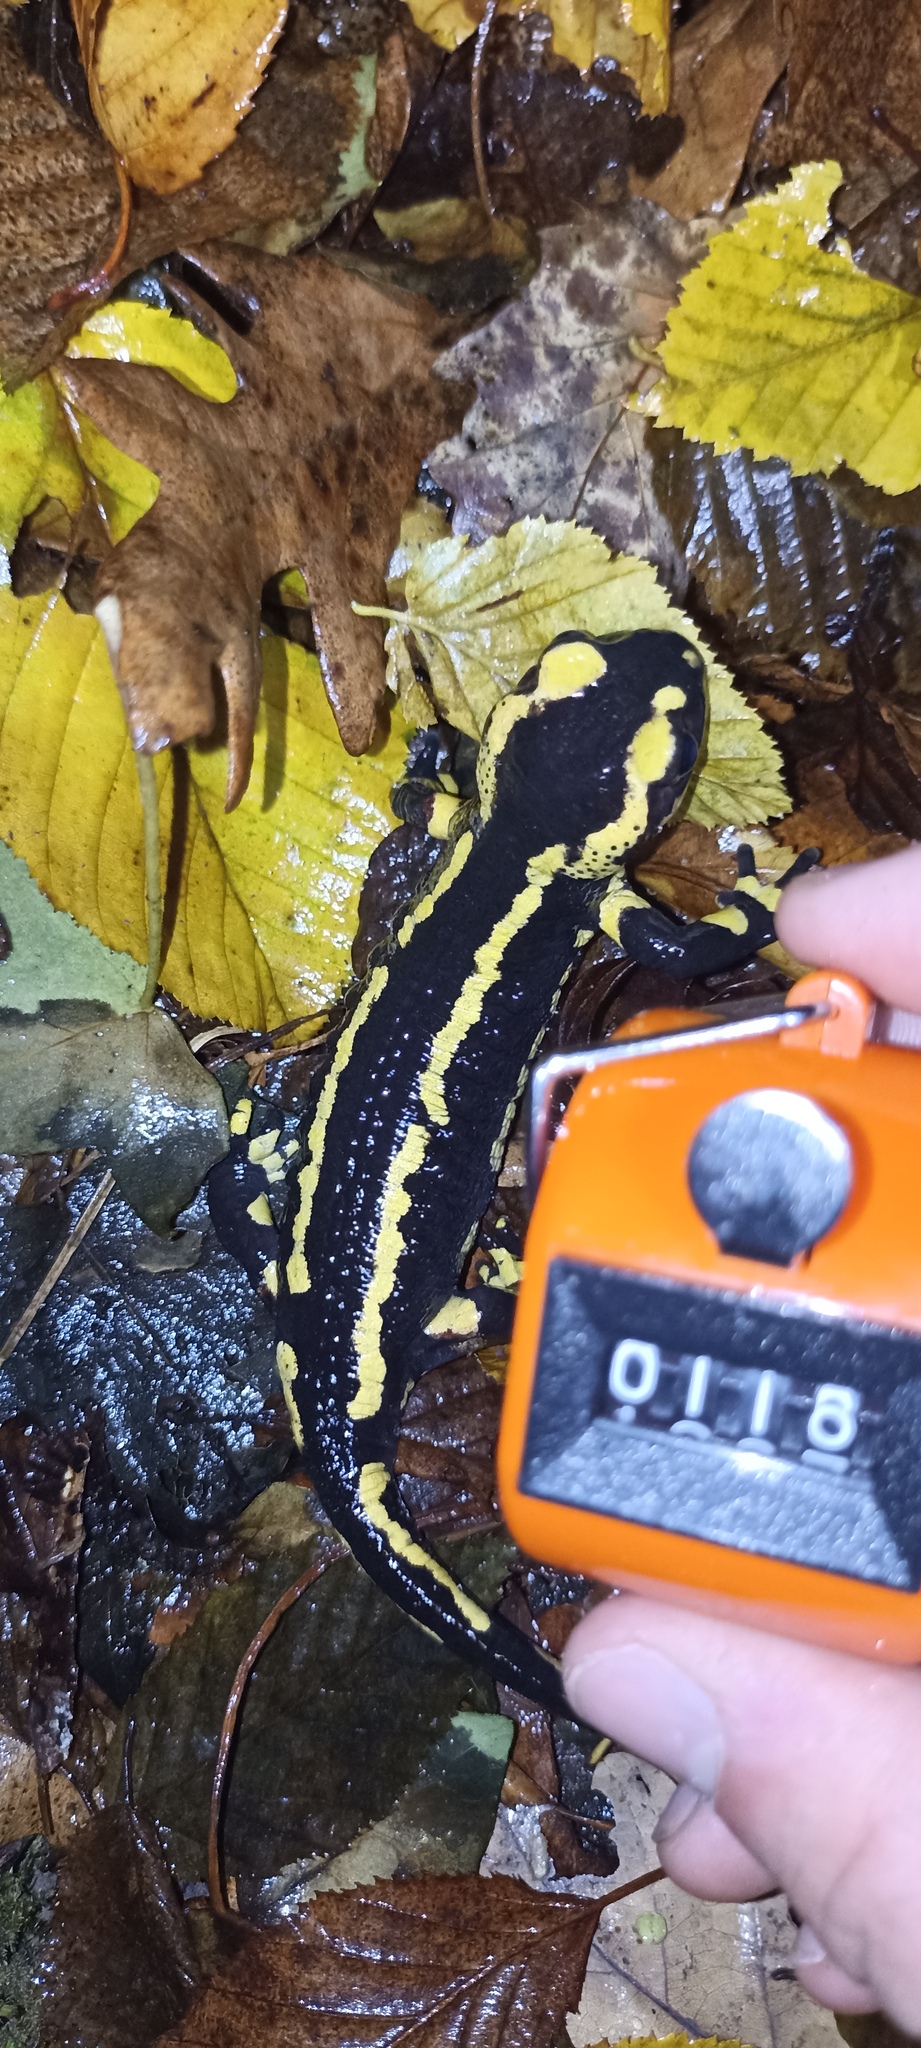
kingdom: Animalia
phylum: Chordata
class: Amphibia
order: Caudata
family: Salamandridae
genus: Salamandra
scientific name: Salamandra salamandra
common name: Fire salamander
